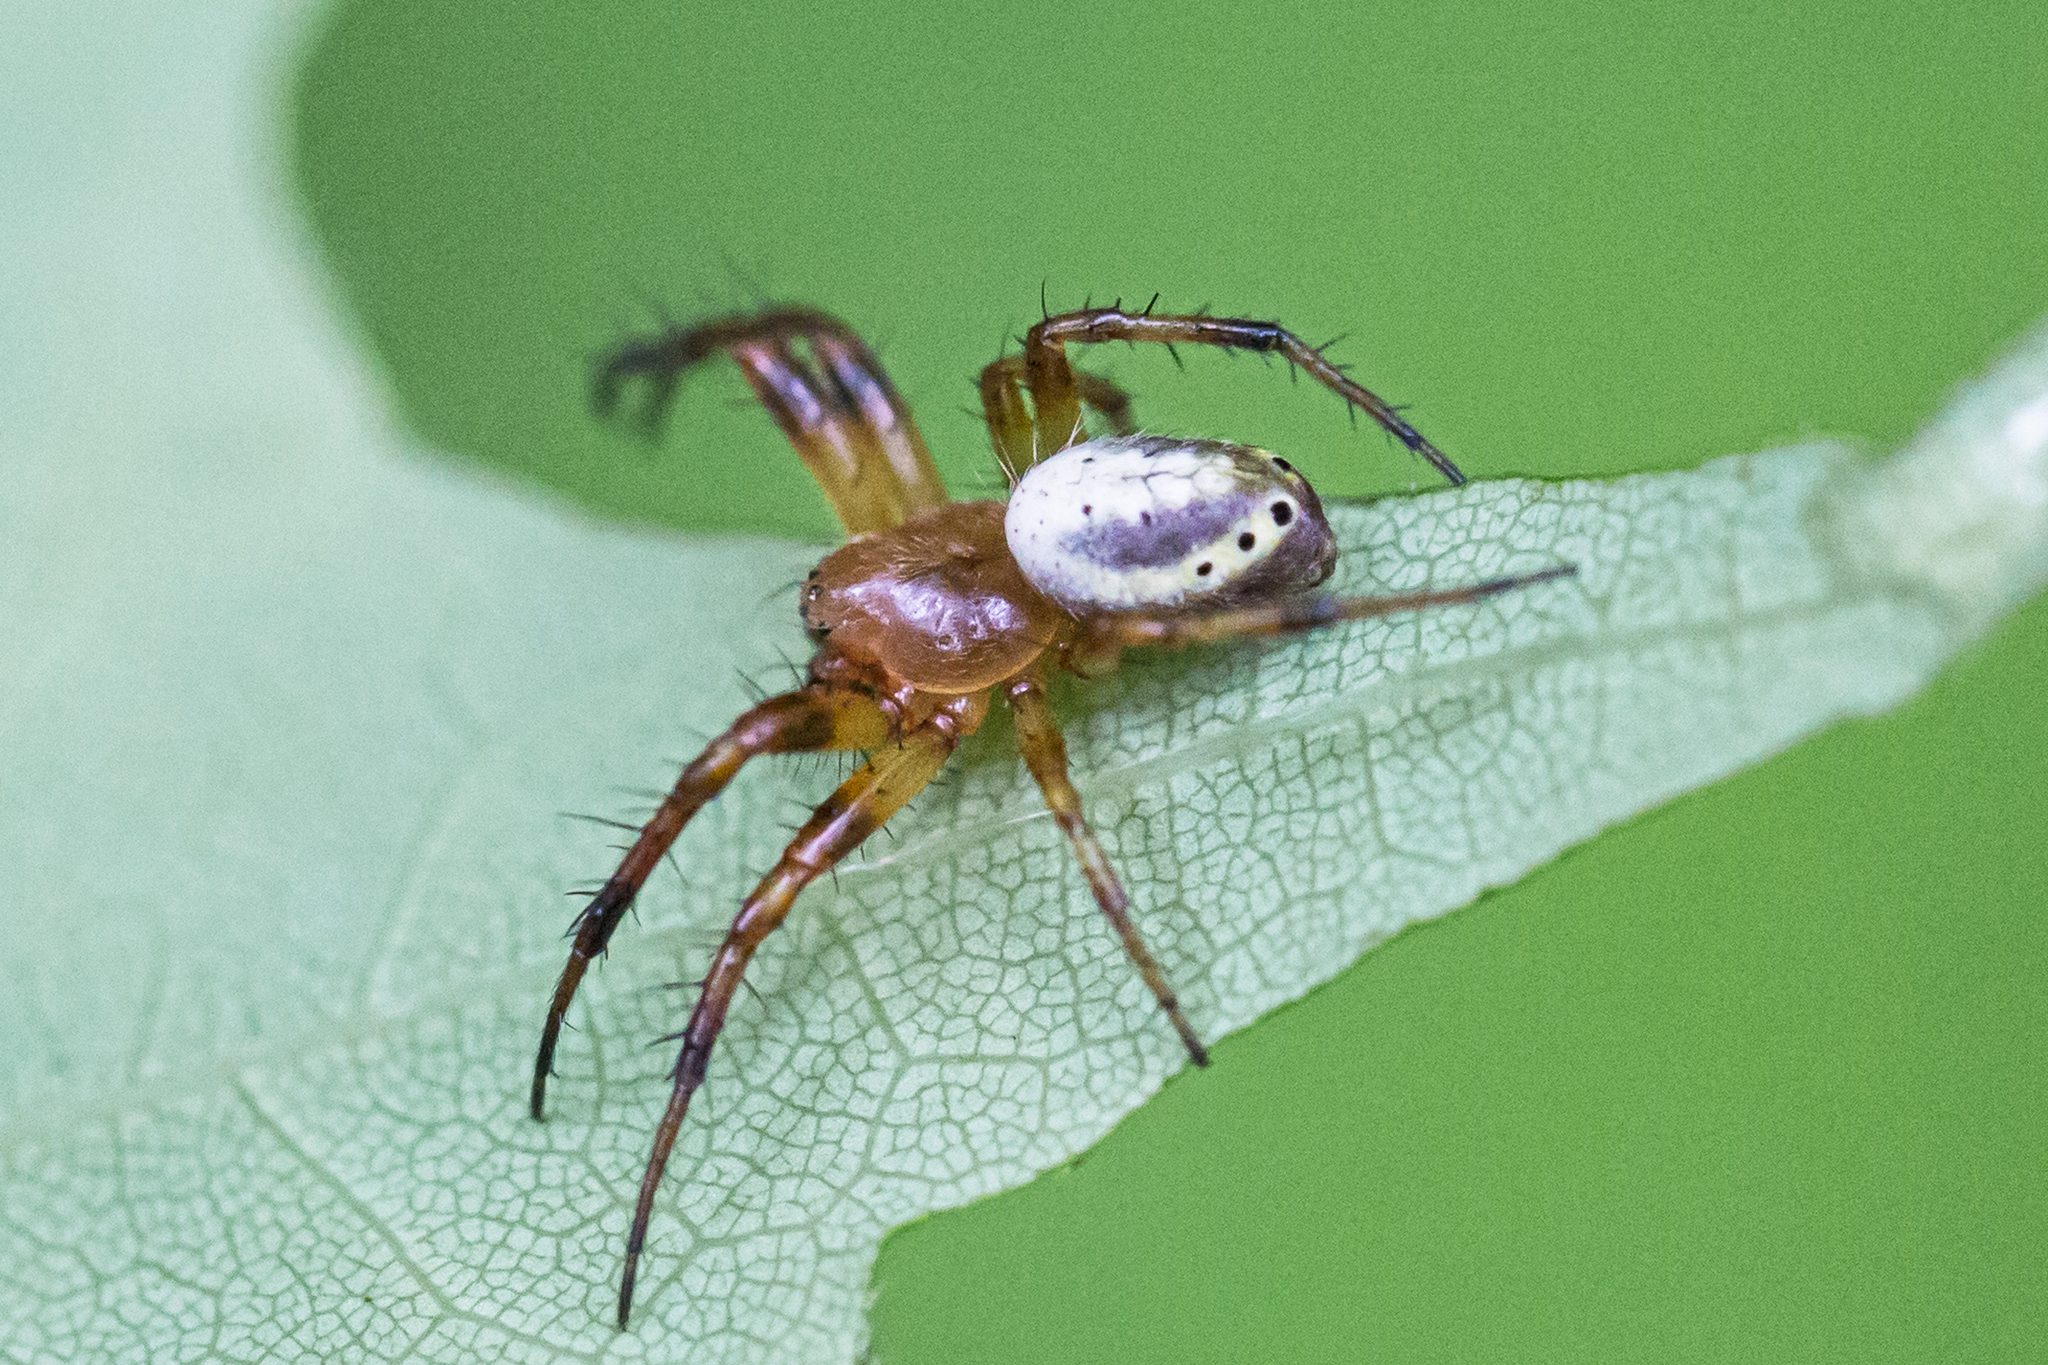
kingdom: Animalia
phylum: Arthropoda
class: Arachnida
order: Araneae
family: Araneidae
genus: Araniella
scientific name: Araniella displicata
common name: Sixspotted orb weaver
